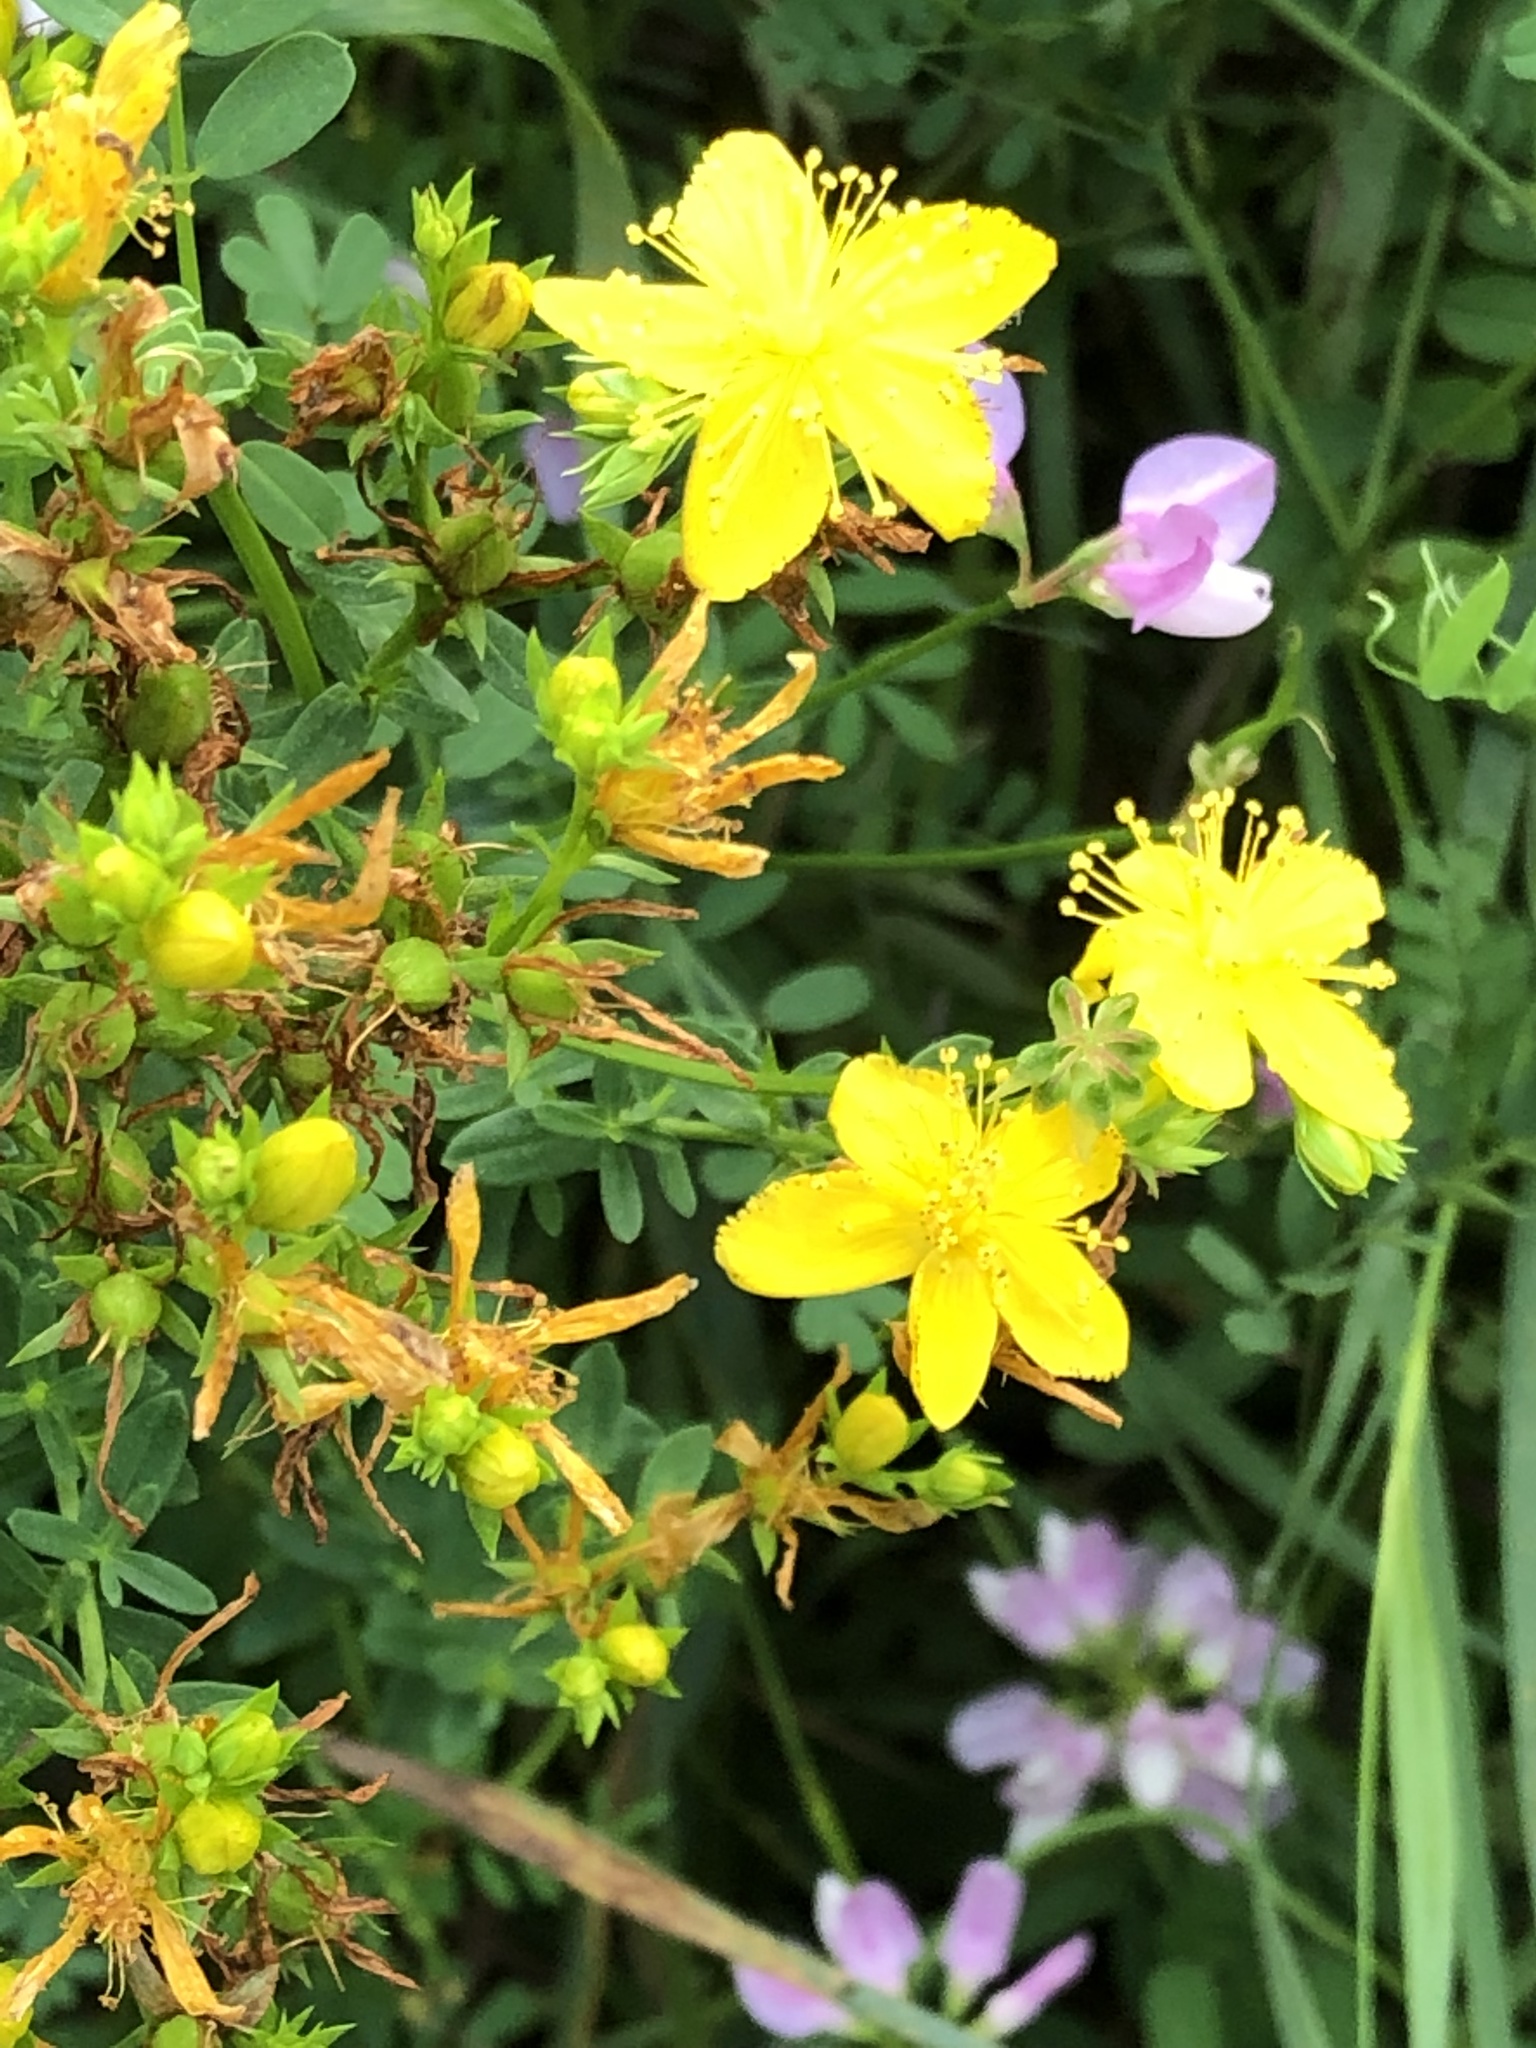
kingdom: Plantae
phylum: Tracheophyta
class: Magnoliopsida
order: Malpighiales
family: Hypericaceae
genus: Hypericum
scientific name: Hypericum perforatum
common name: Common st. johnswort
